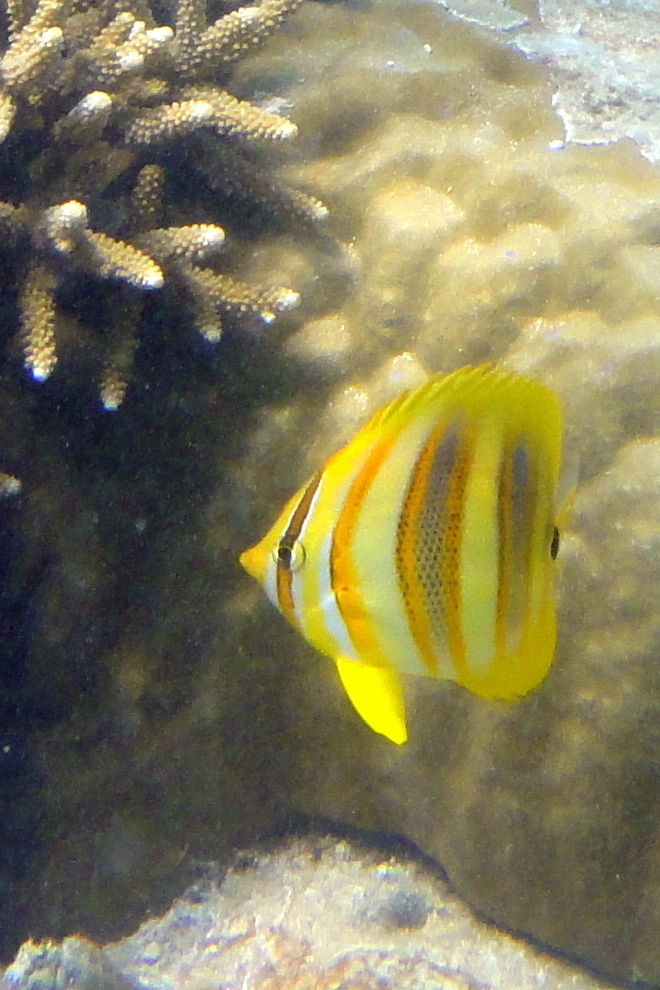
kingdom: Animalia
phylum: Chordata
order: Perciformes
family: Chaetodontidae
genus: Chaetodon
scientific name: Chaetodon rainfordi
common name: Rainford's butterflyfish
